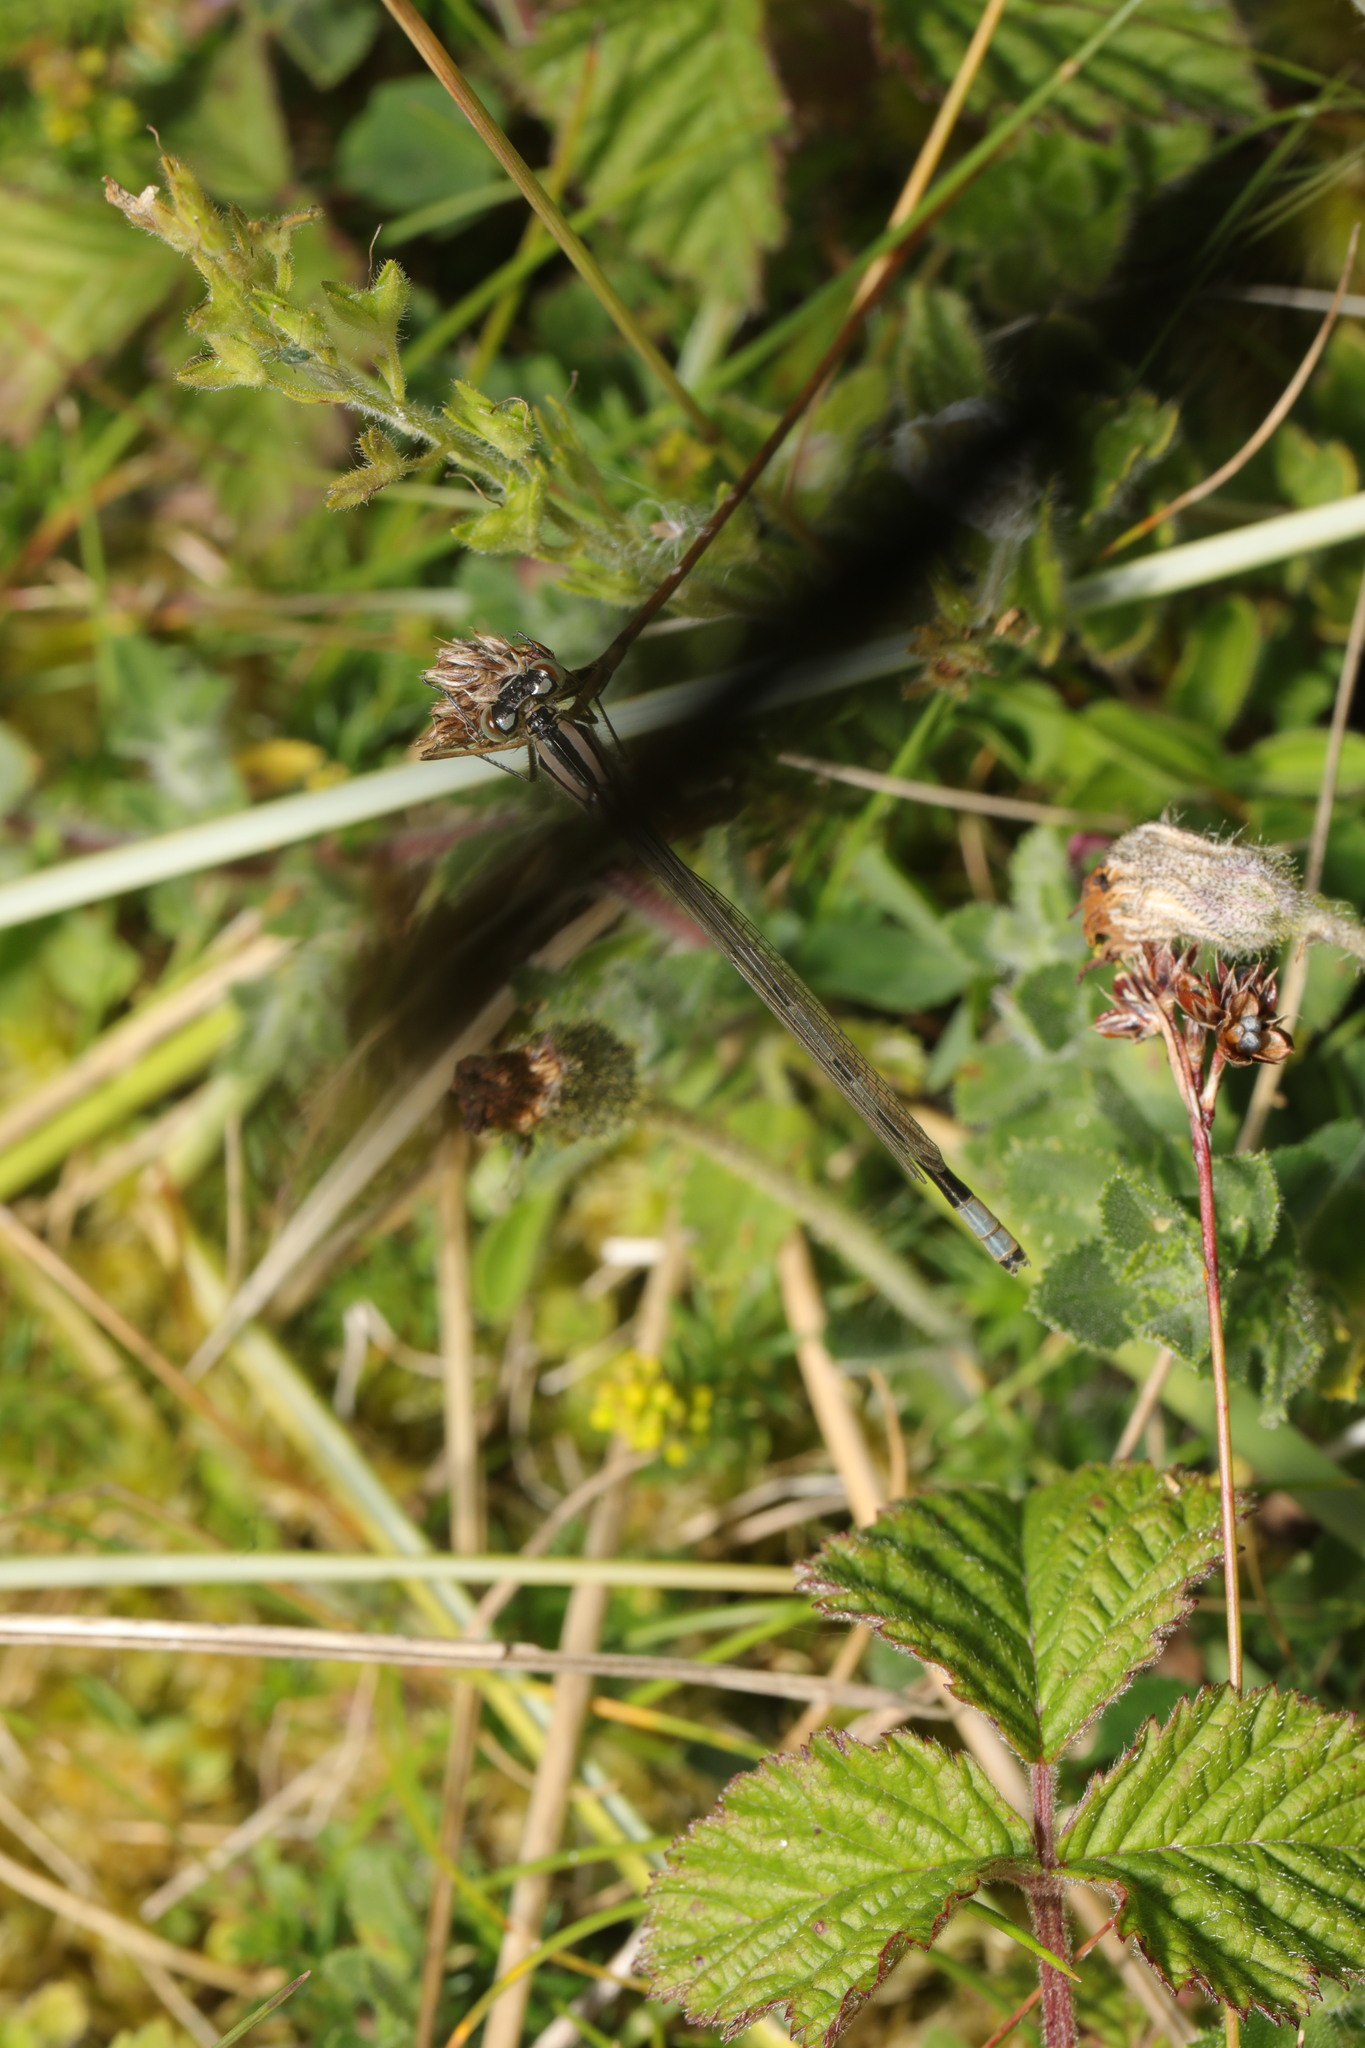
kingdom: Animalia
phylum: Arthropoda
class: Insecta
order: Odonata
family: Coenagrionidae
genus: Enallagma
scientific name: Enallagma cyathigerum
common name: Common blue damselfly
